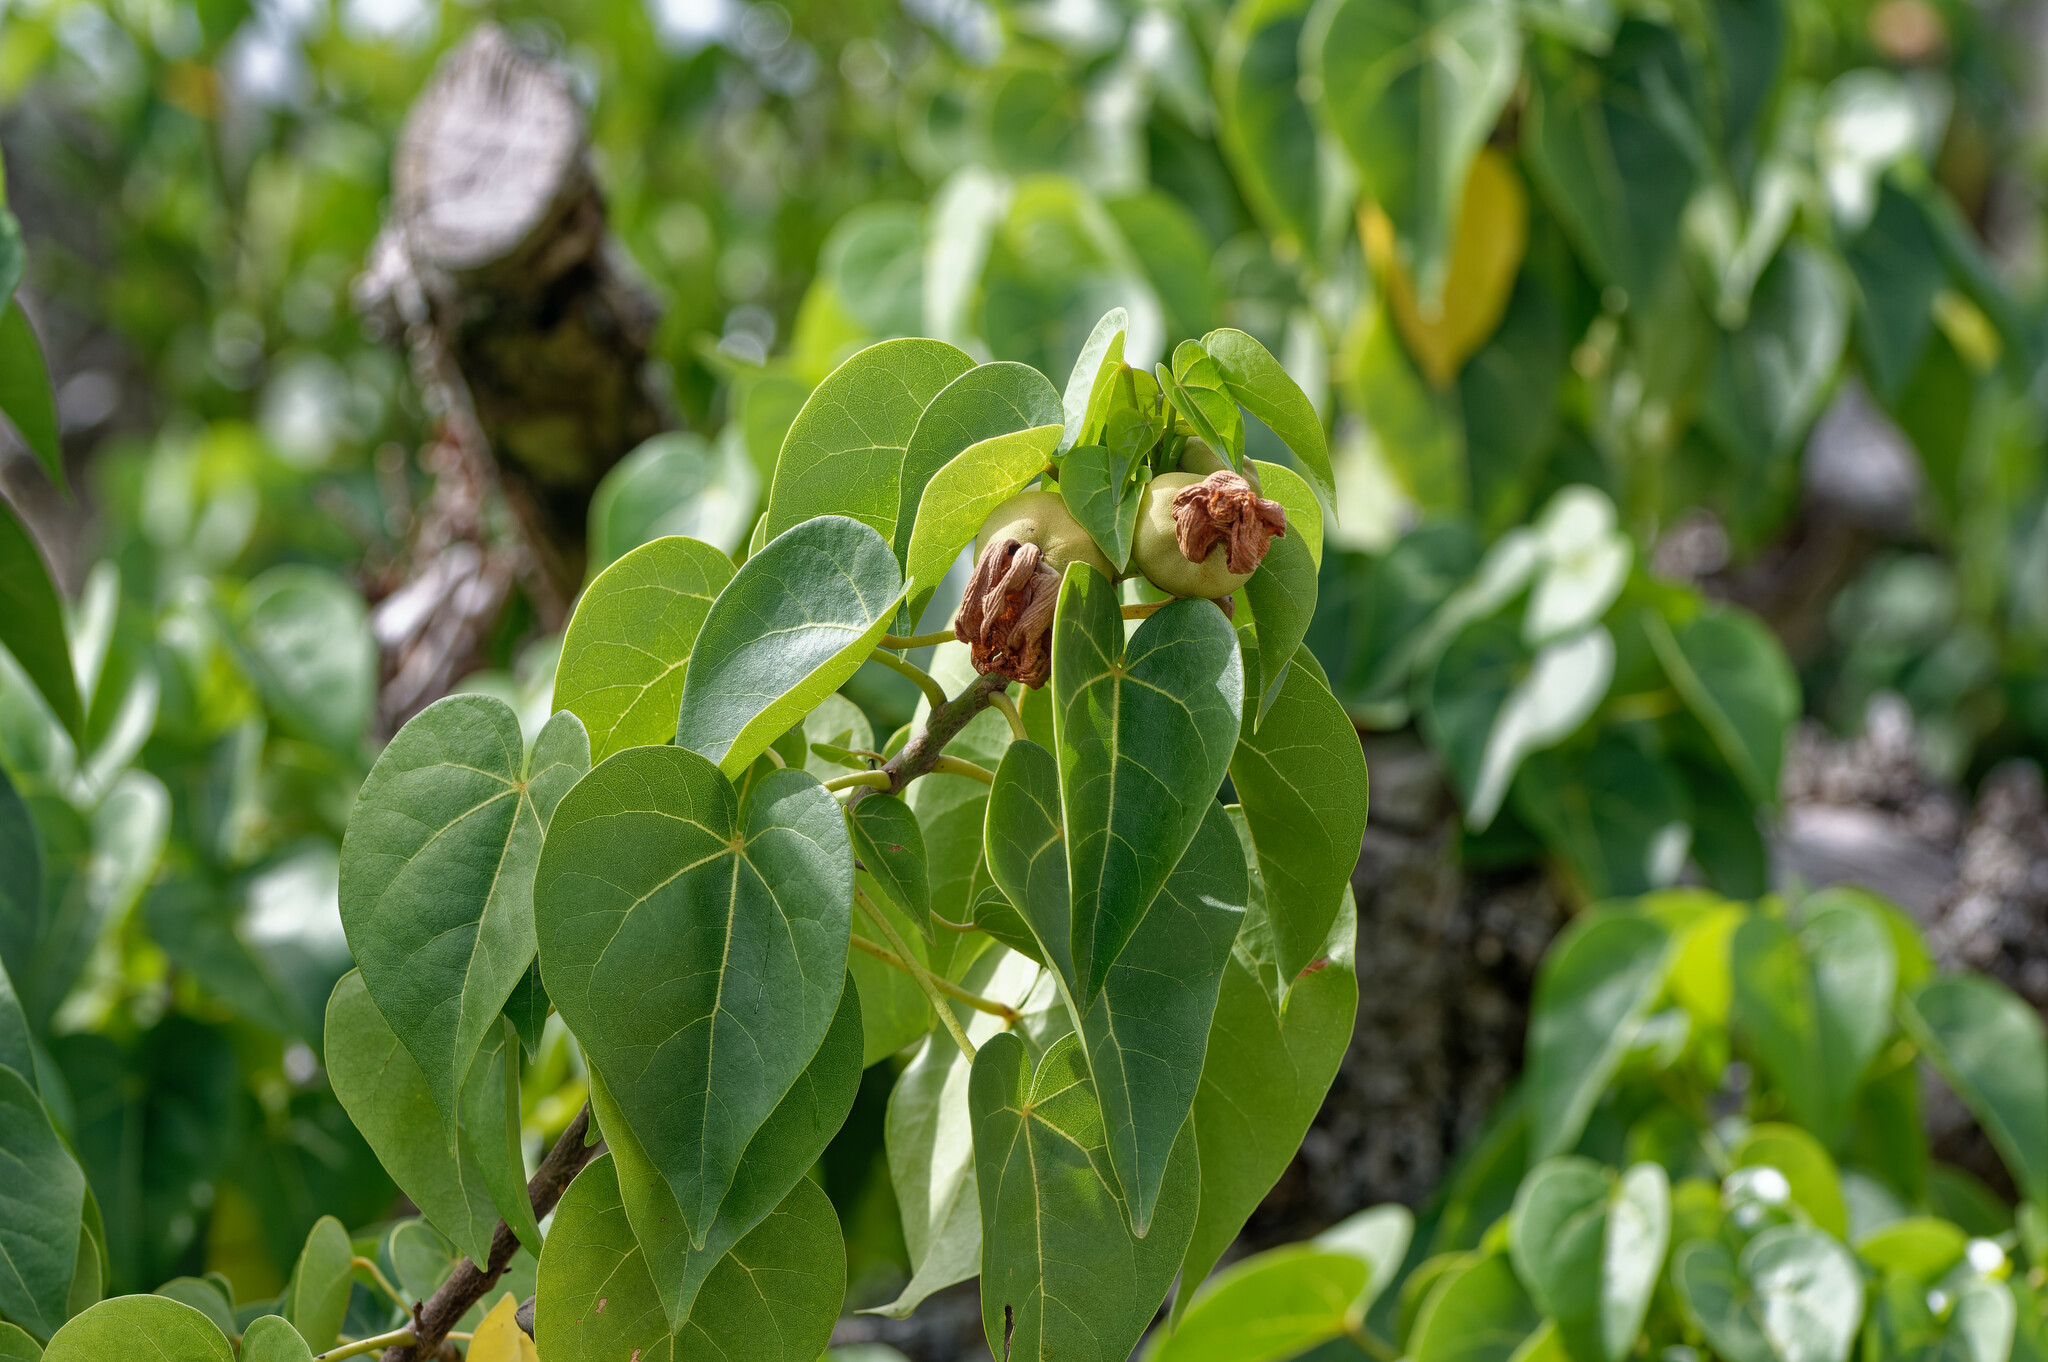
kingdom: Plantae
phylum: Tracheophyta
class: Magnoliopsida
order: Malvales
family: Malvaceae
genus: Thespesia
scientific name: Thespesia populnea
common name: Seaside mahoe
